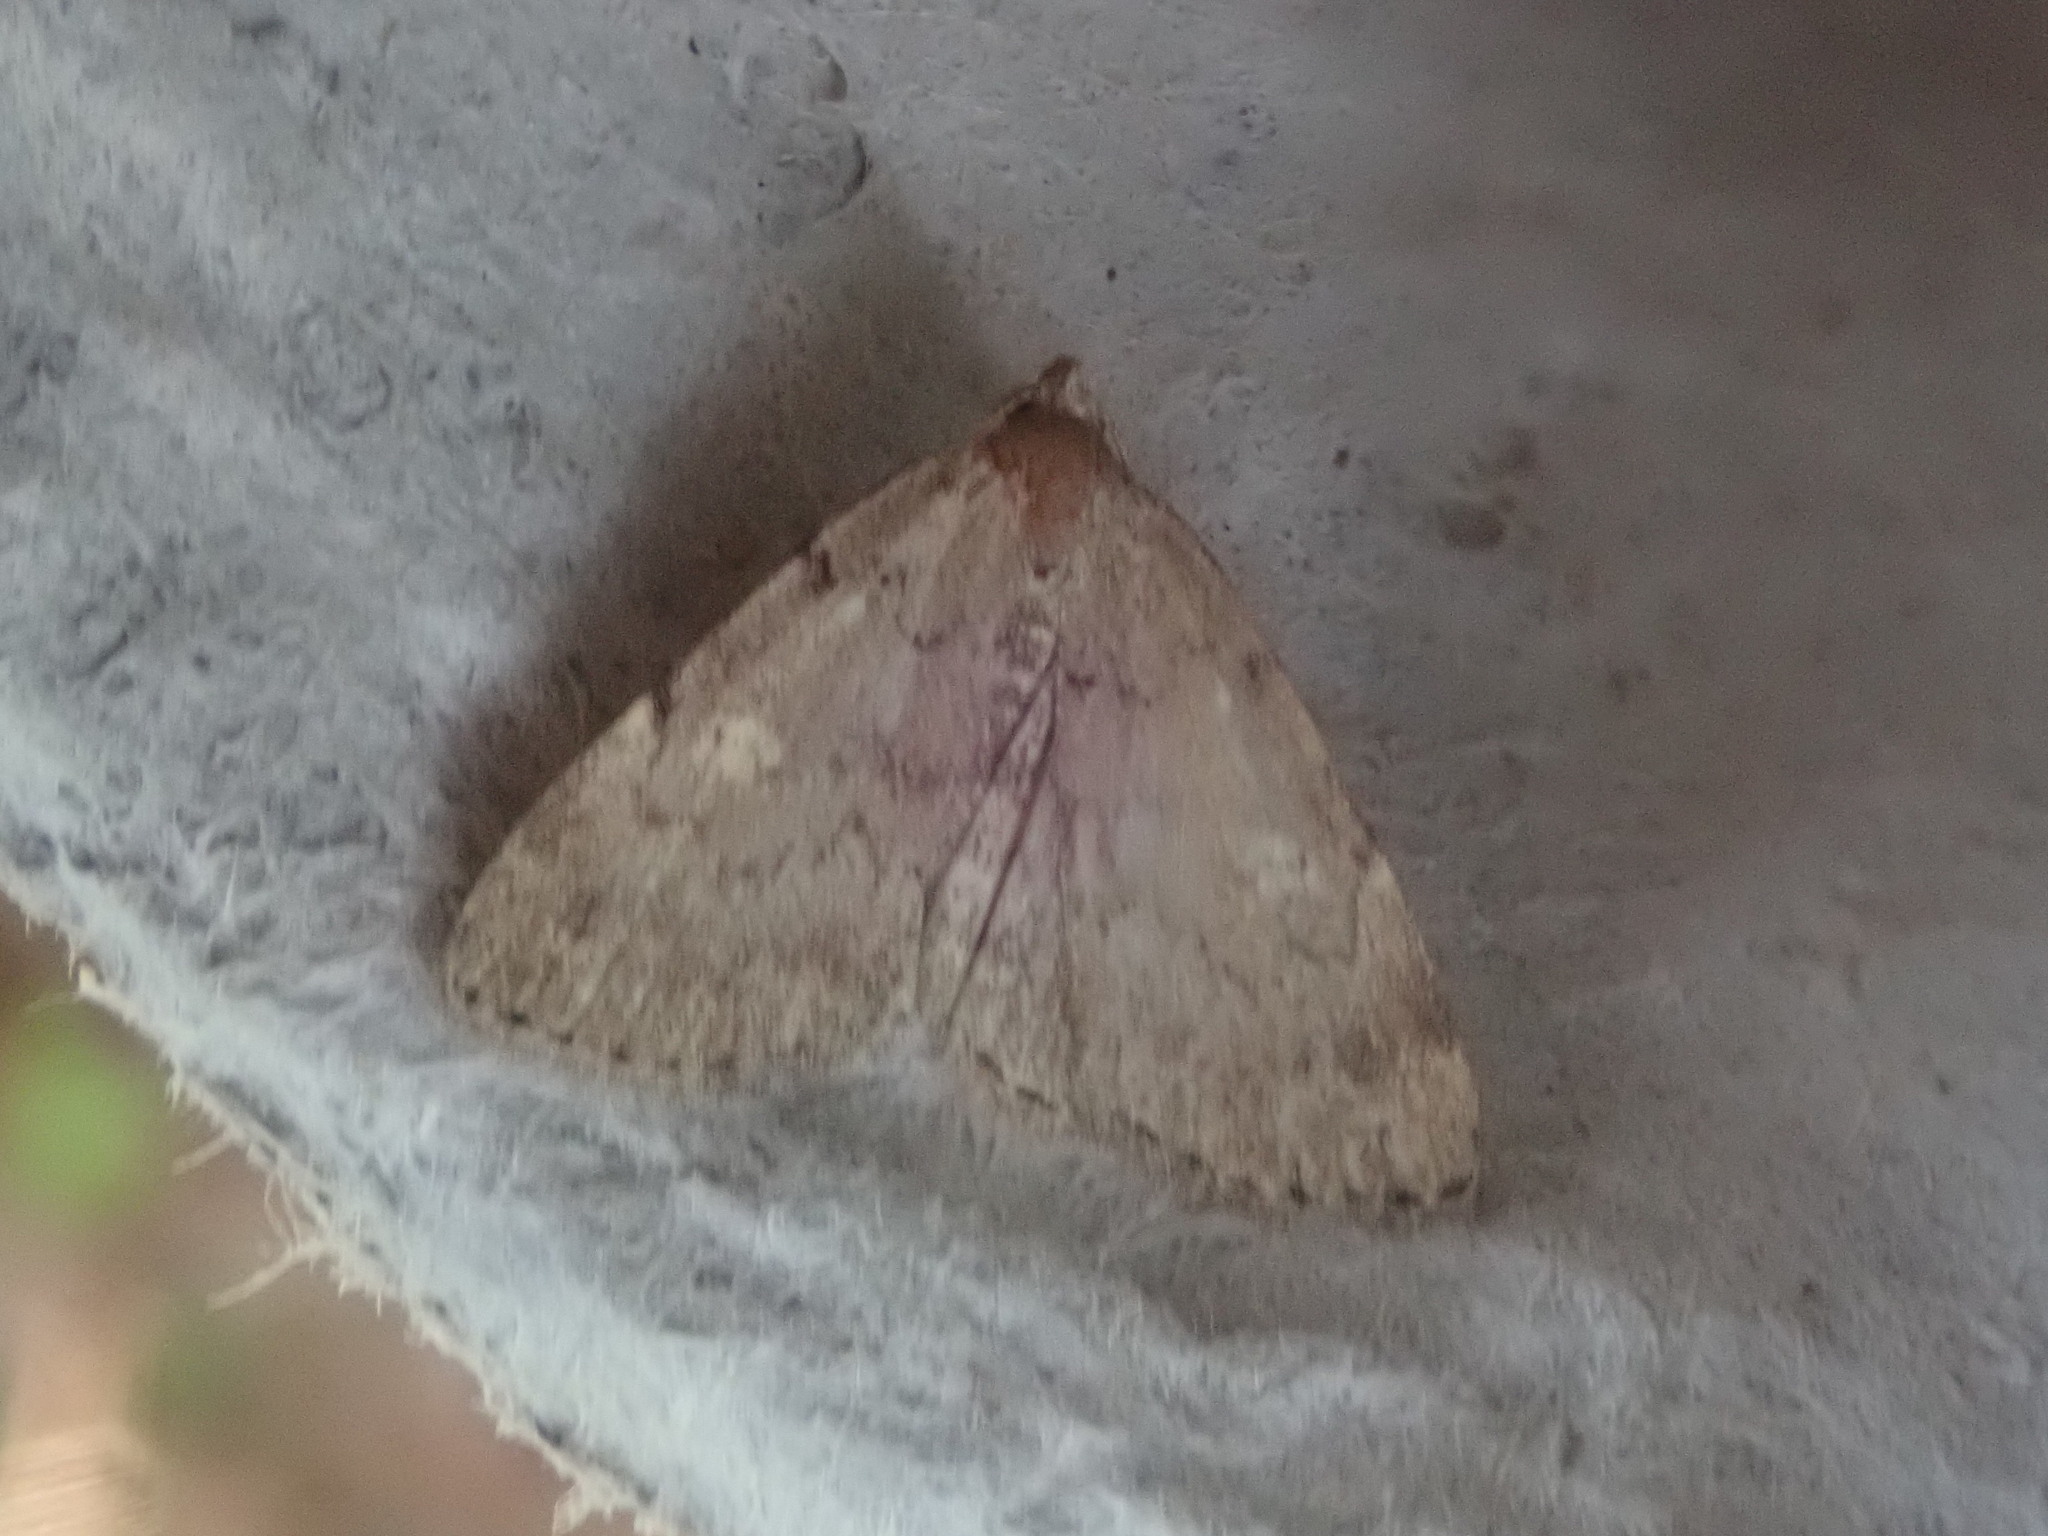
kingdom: Animalia
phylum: Arthropoda
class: Insecta
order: Lepidoptera
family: Erebidae
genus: Idia
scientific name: Idia aemula
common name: Common idia moth
